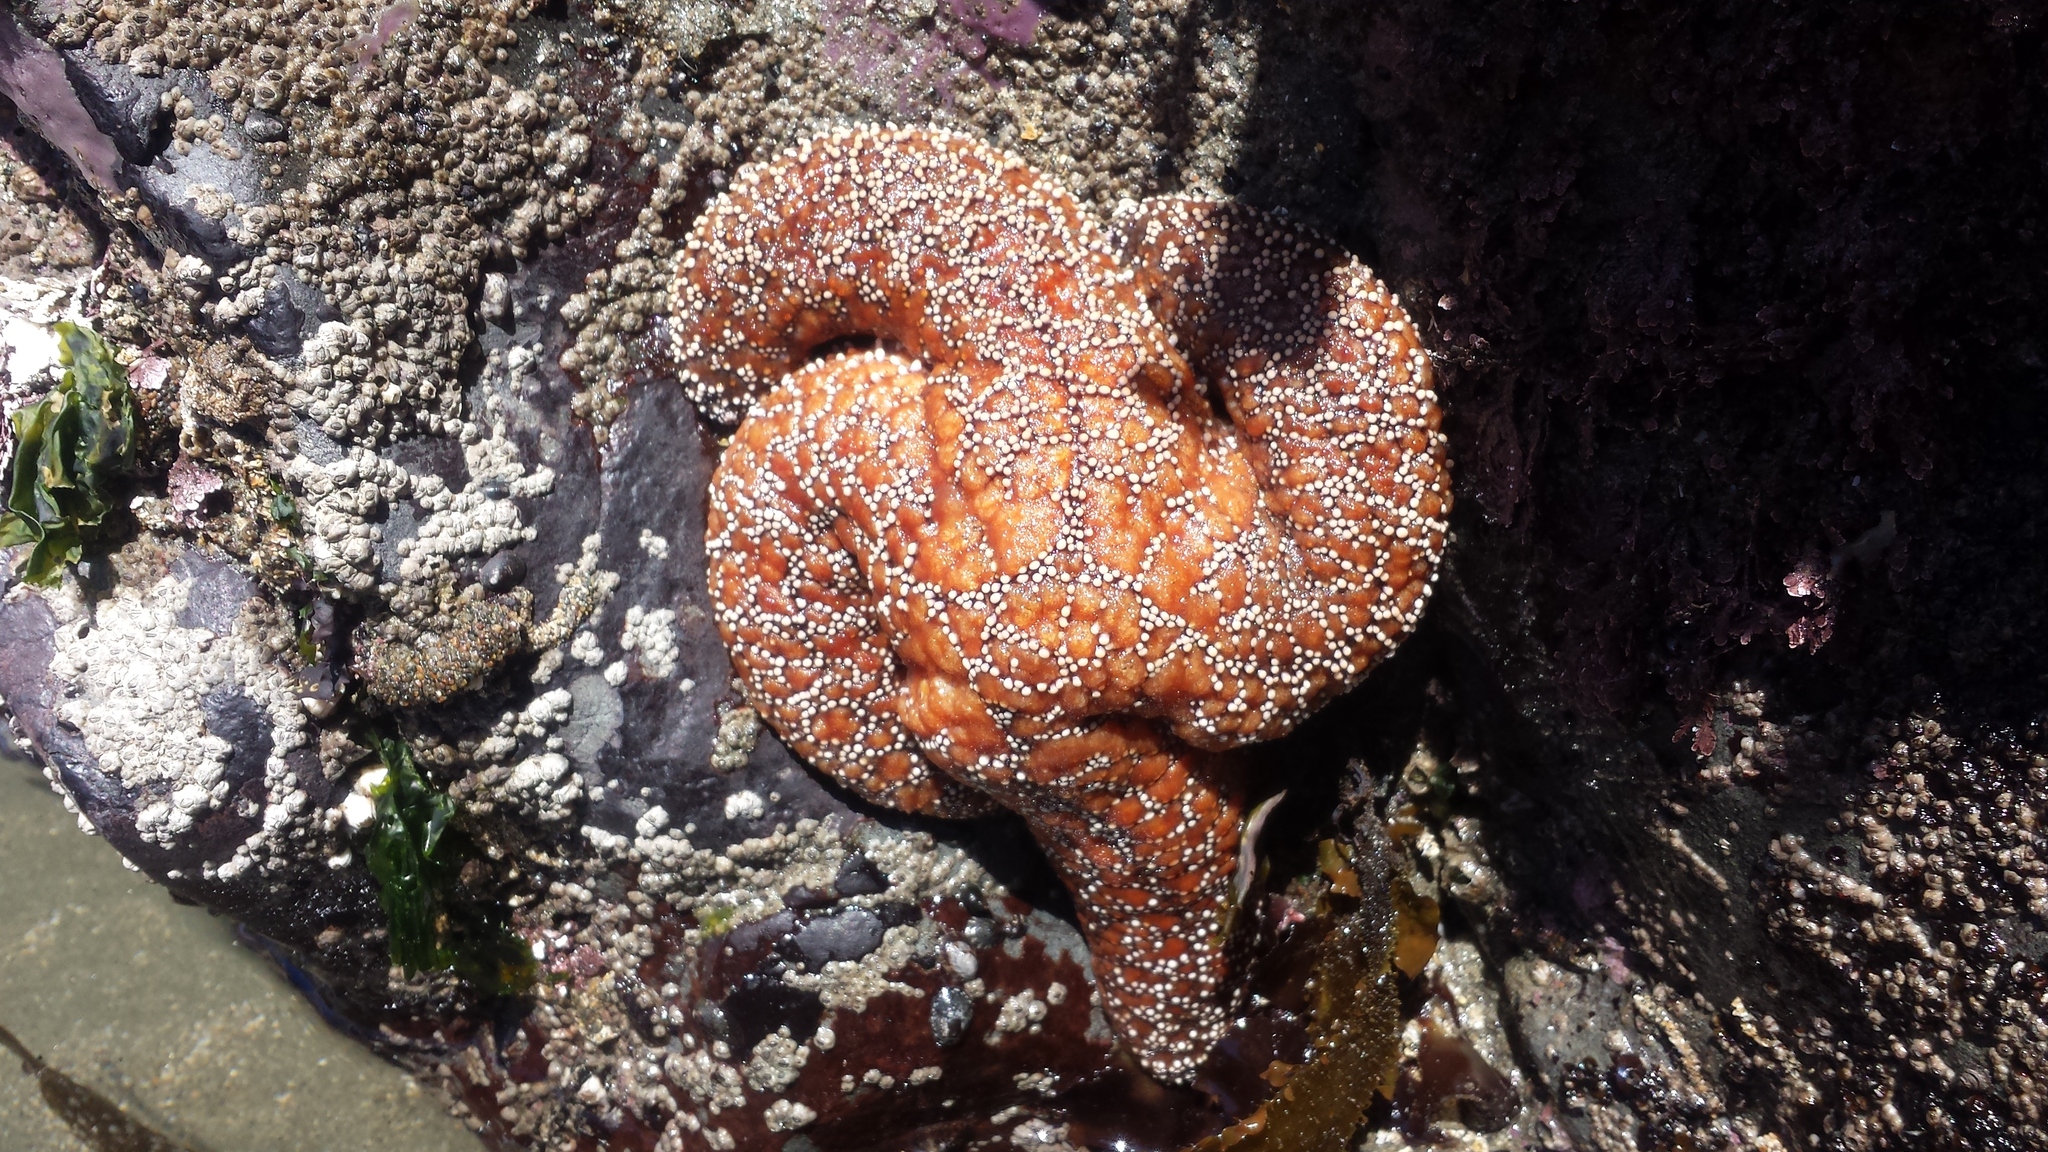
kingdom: Animalia
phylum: Echinodermata
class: Asteroidea
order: Forcipulatida
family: Asteriidae
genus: Pisaster
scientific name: Pisaster ochraceus
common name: Ochre stars
